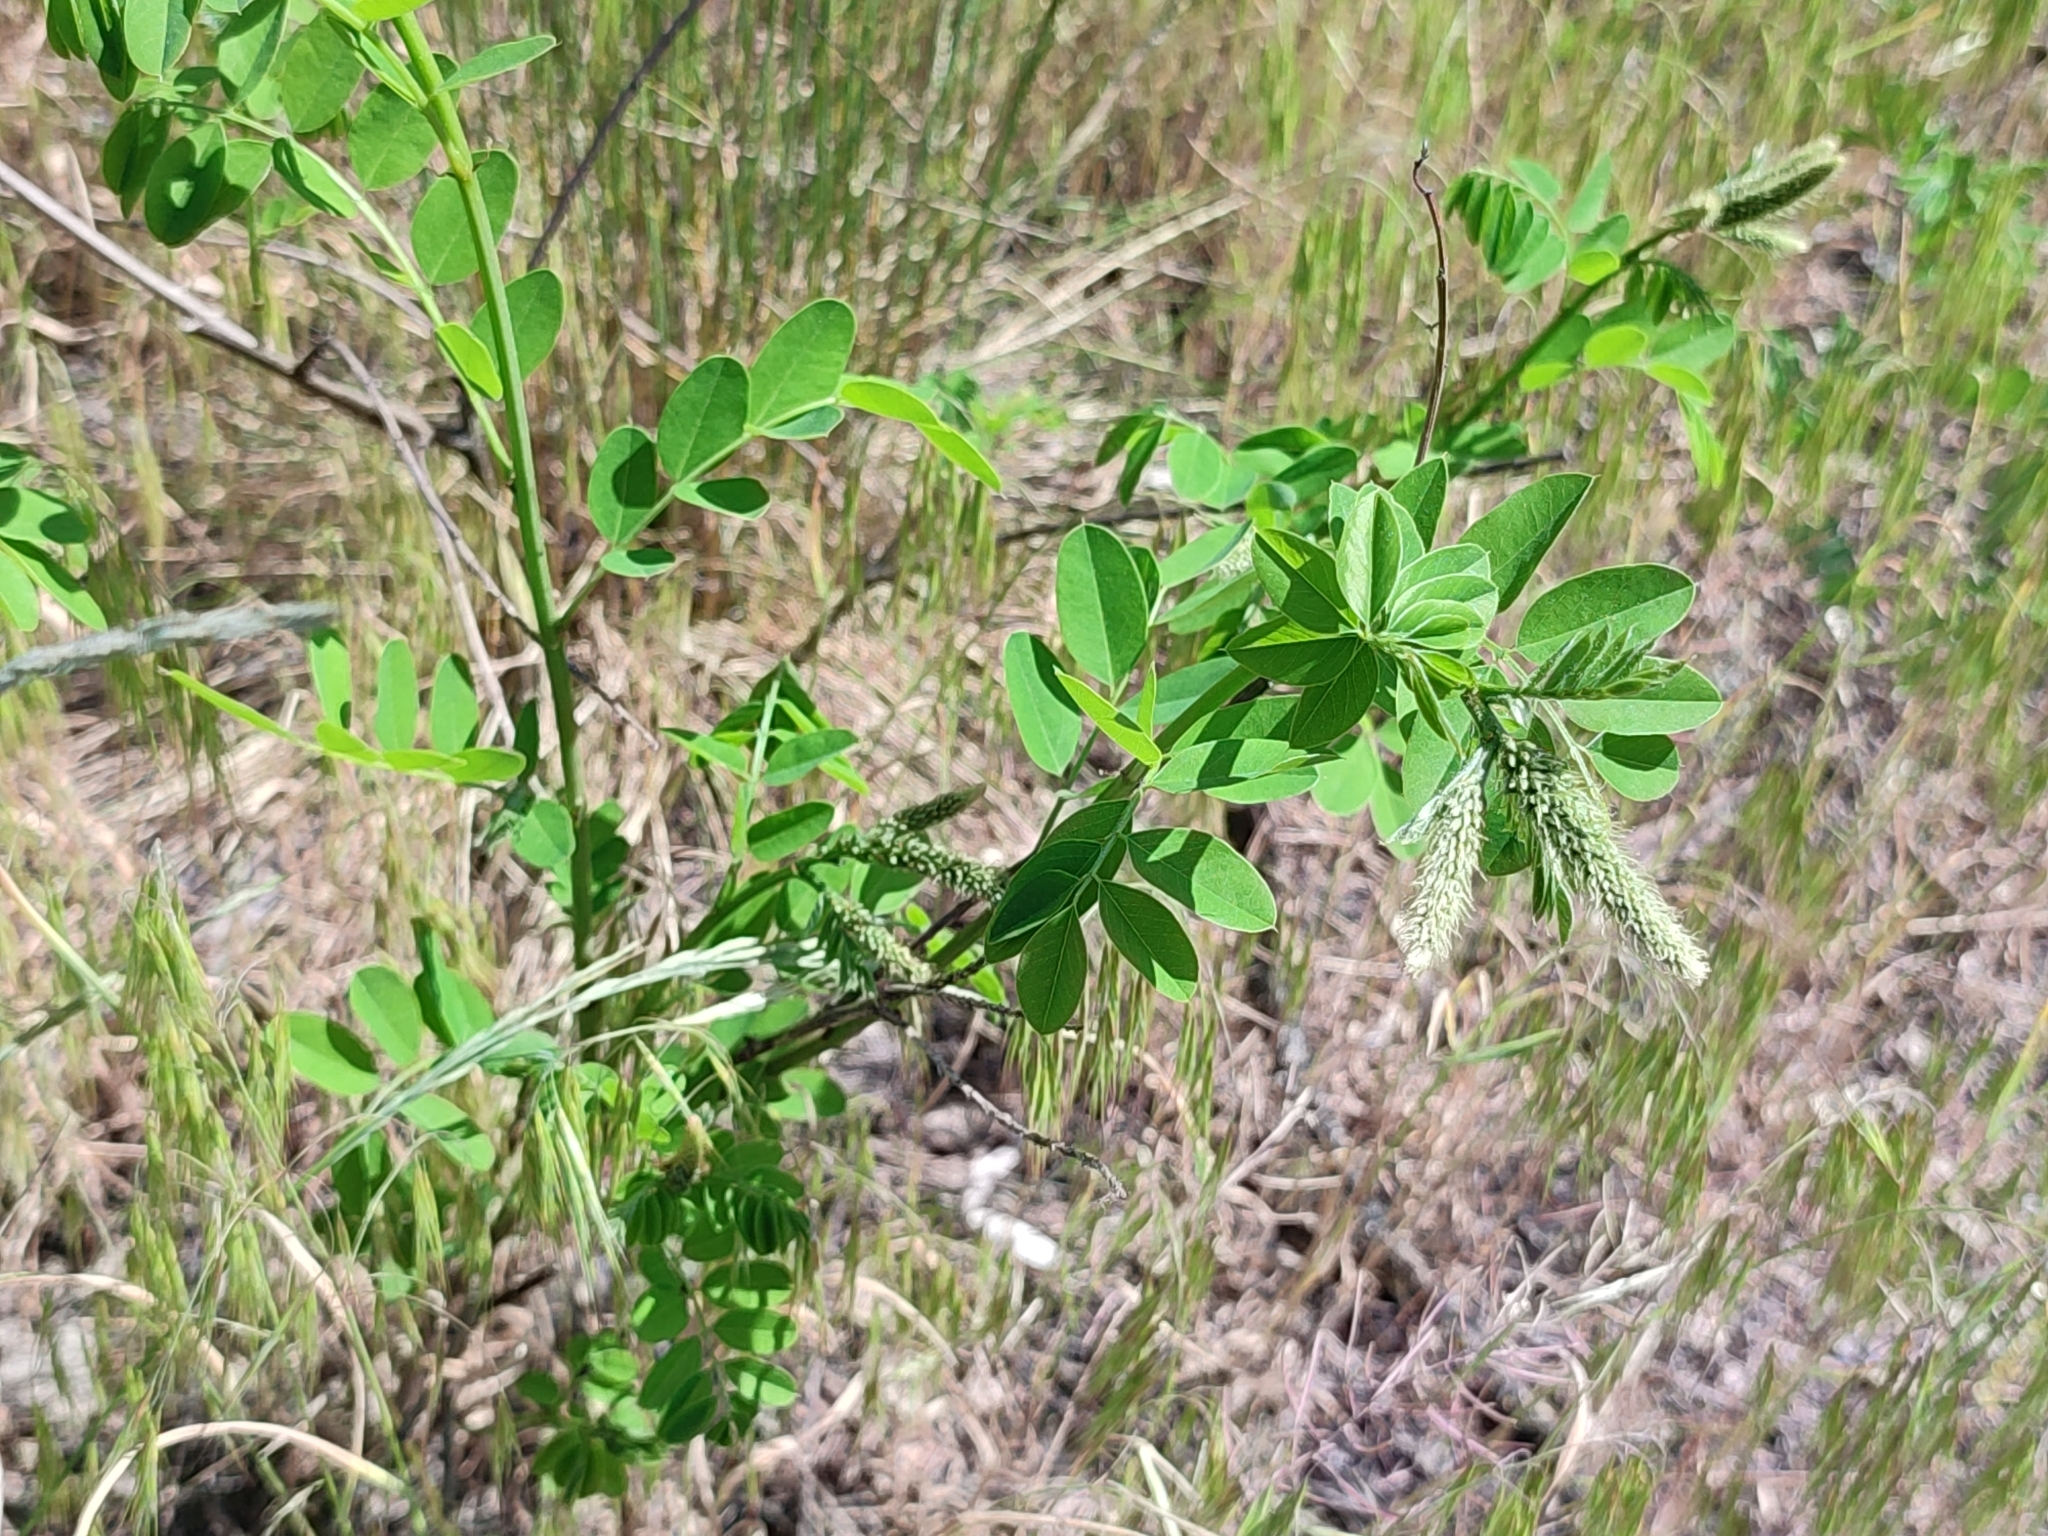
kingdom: Plantae
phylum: Tracheophyta
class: Magnoliopsida
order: Fabales
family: Fabaceae
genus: Amorpha
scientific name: Amorpha fruticosa
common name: False indigo
